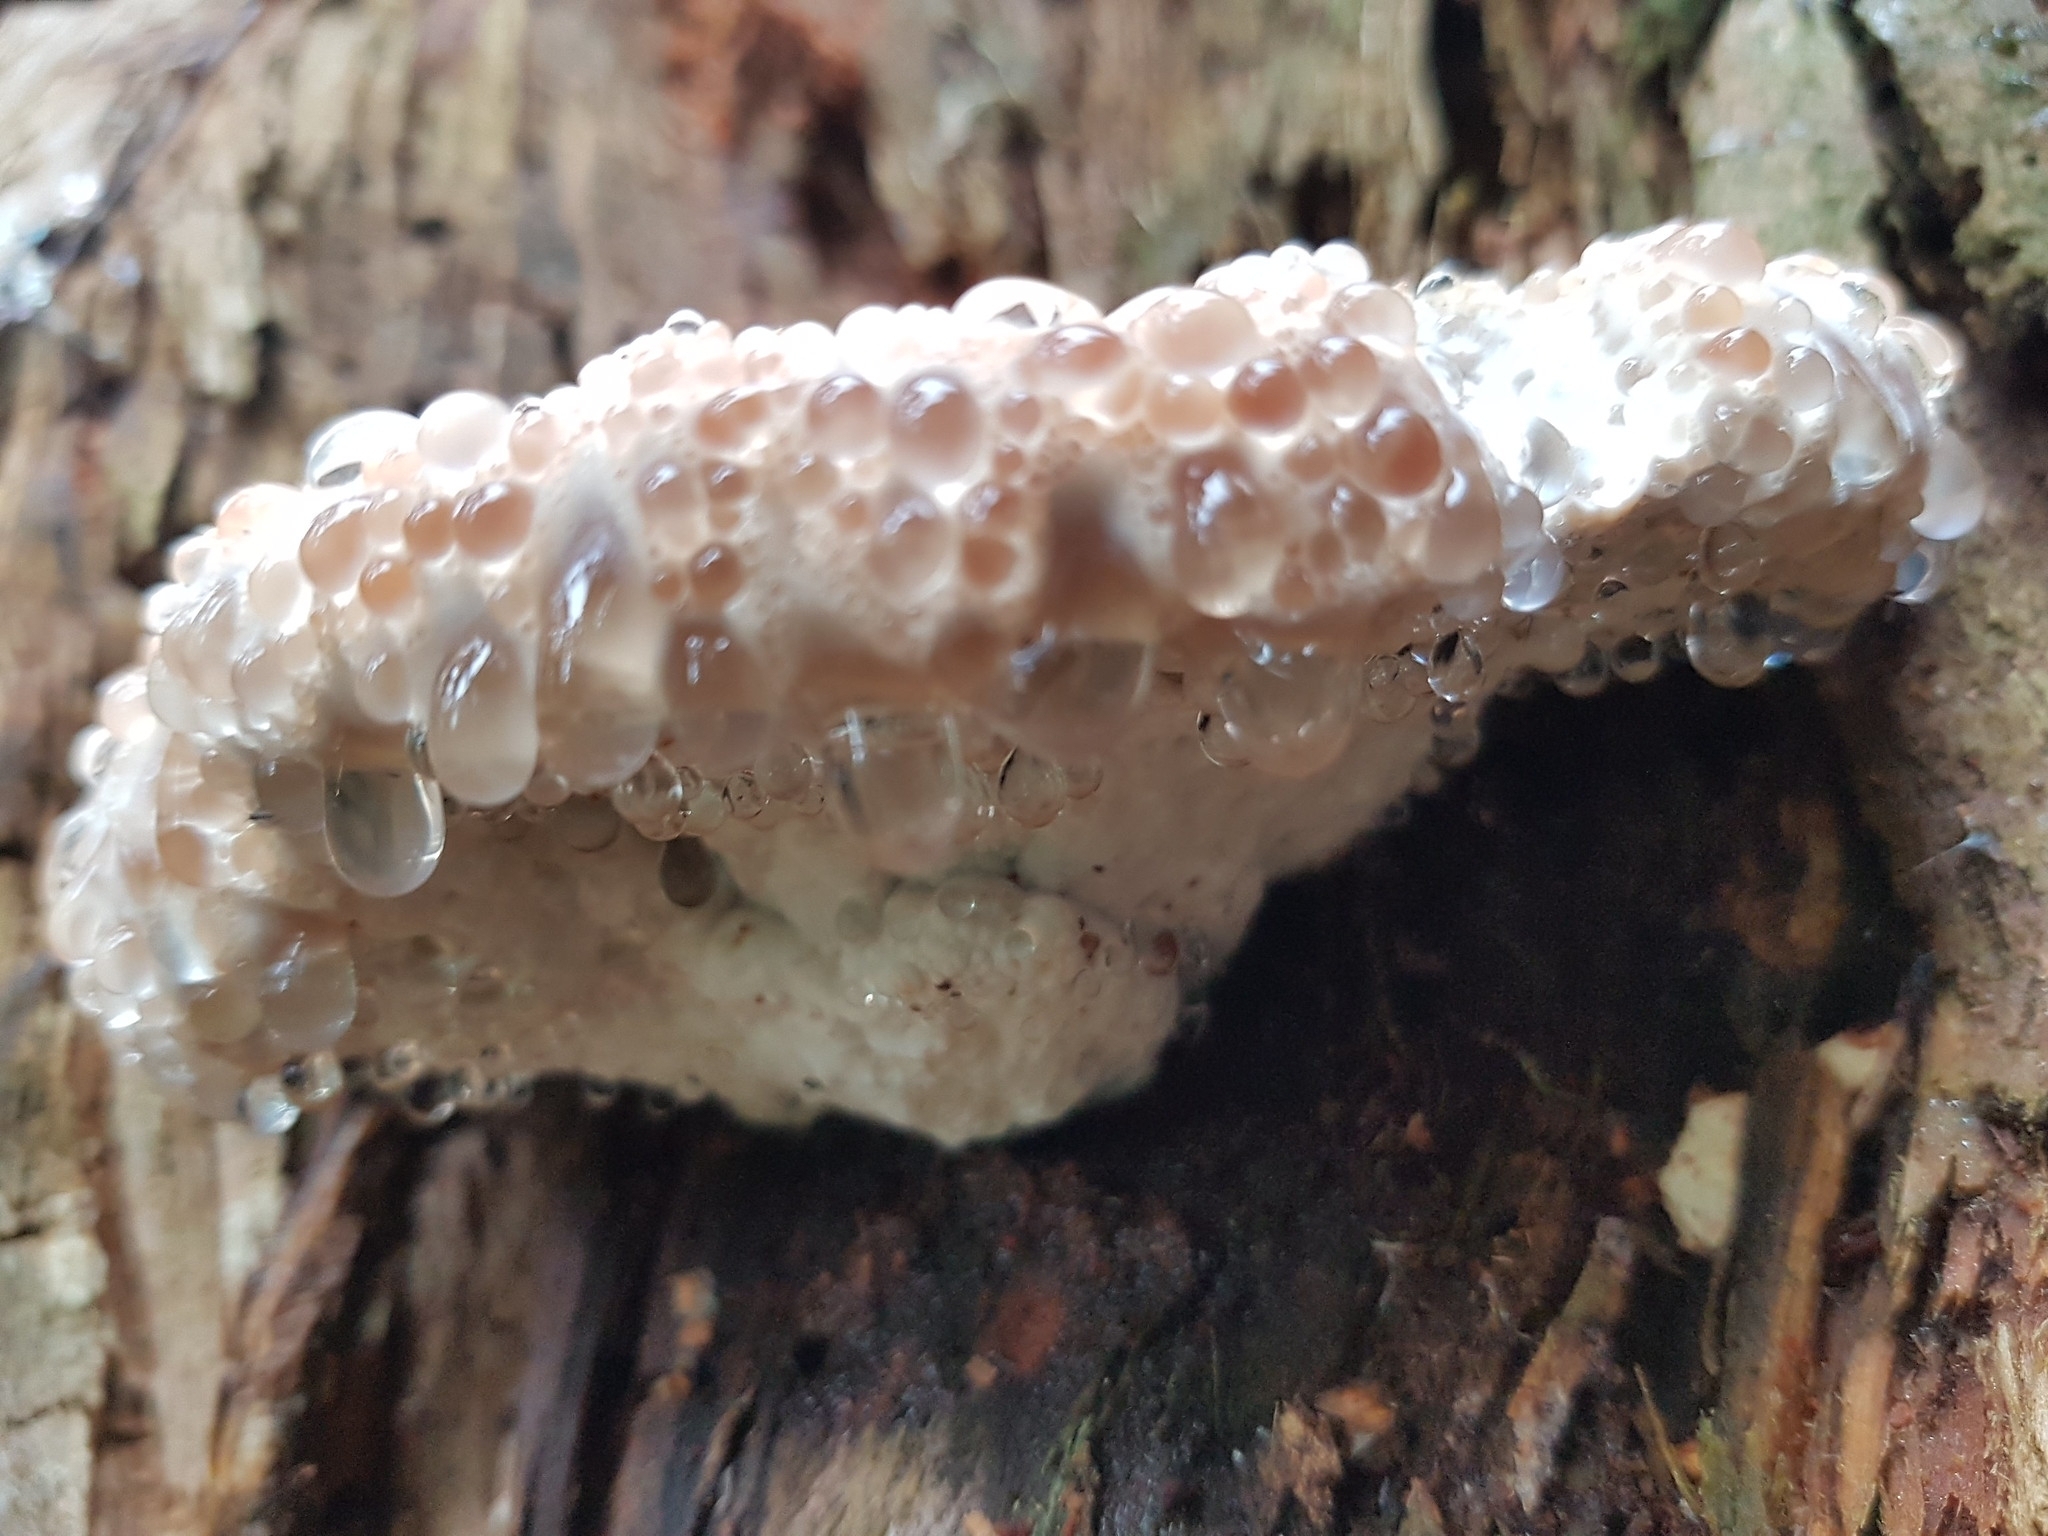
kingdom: Fungi
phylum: Basidiomycota
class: Agaricomycetes
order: Polyporales
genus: Calcipostia
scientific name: Calcipostia guttulata
